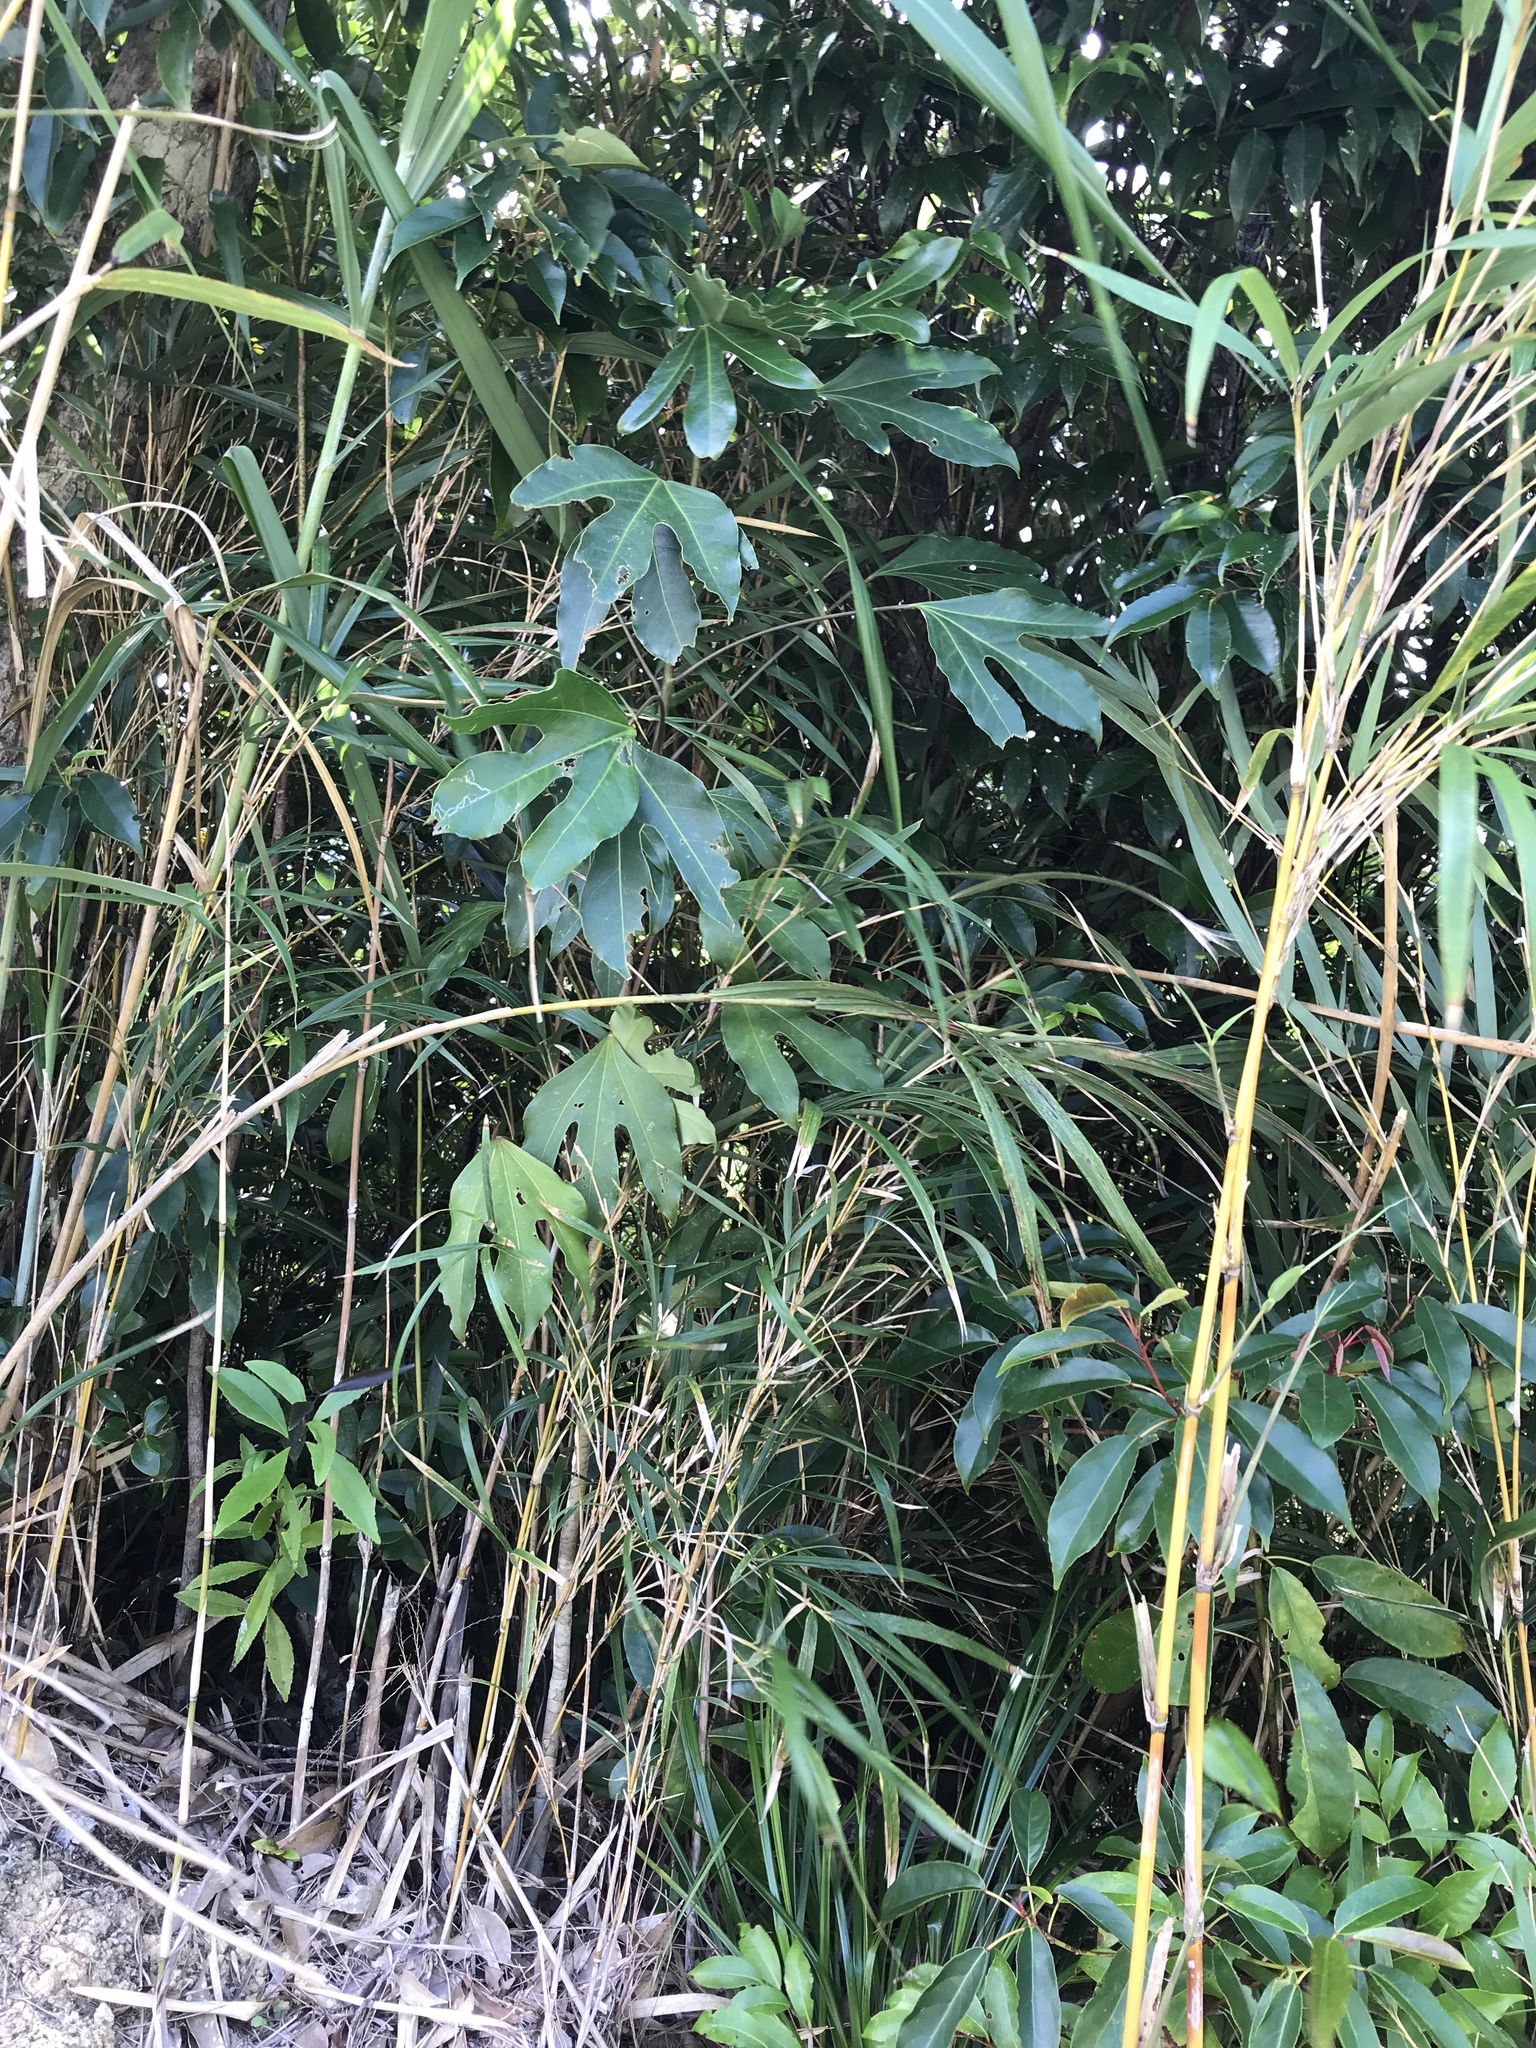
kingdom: Plantae
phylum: Tracheophyta
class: Magnoliopsida
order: Apiales
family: Araliaceae
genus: Dendropanax
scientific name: Dendropanax trifidus
